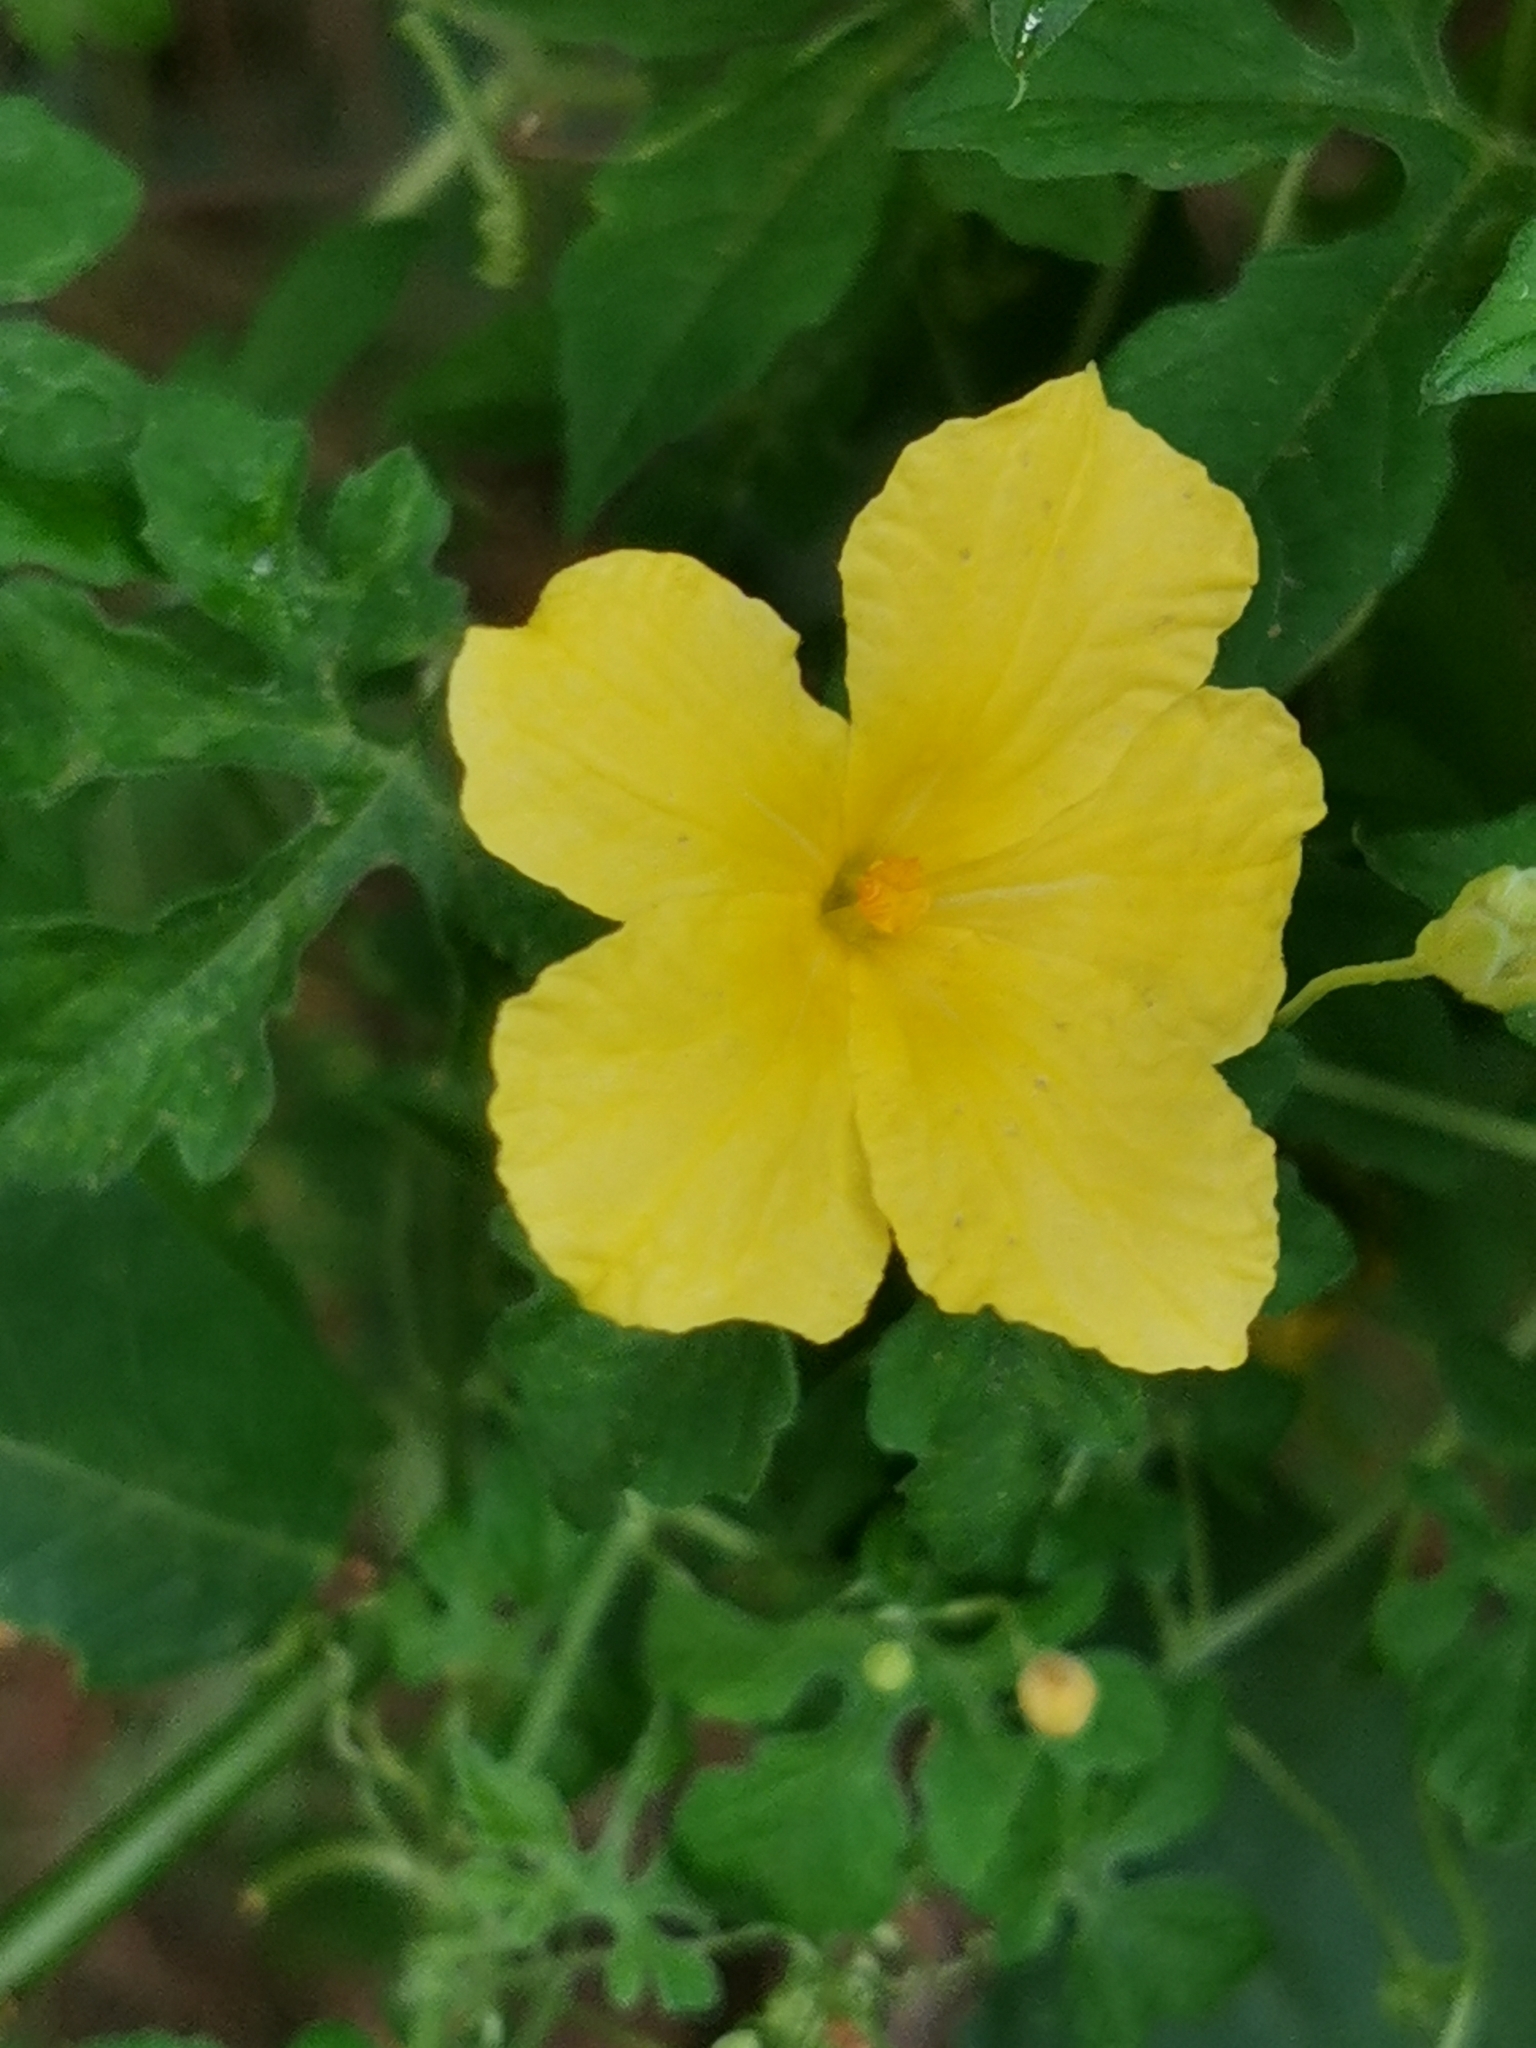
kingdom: Plantae
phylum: Tracheophyta
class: Magnoliopsida
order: Cucurbitales
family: Cucurbitaceae
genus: Momordica
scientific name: Momordica charantia
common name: Balsampear
